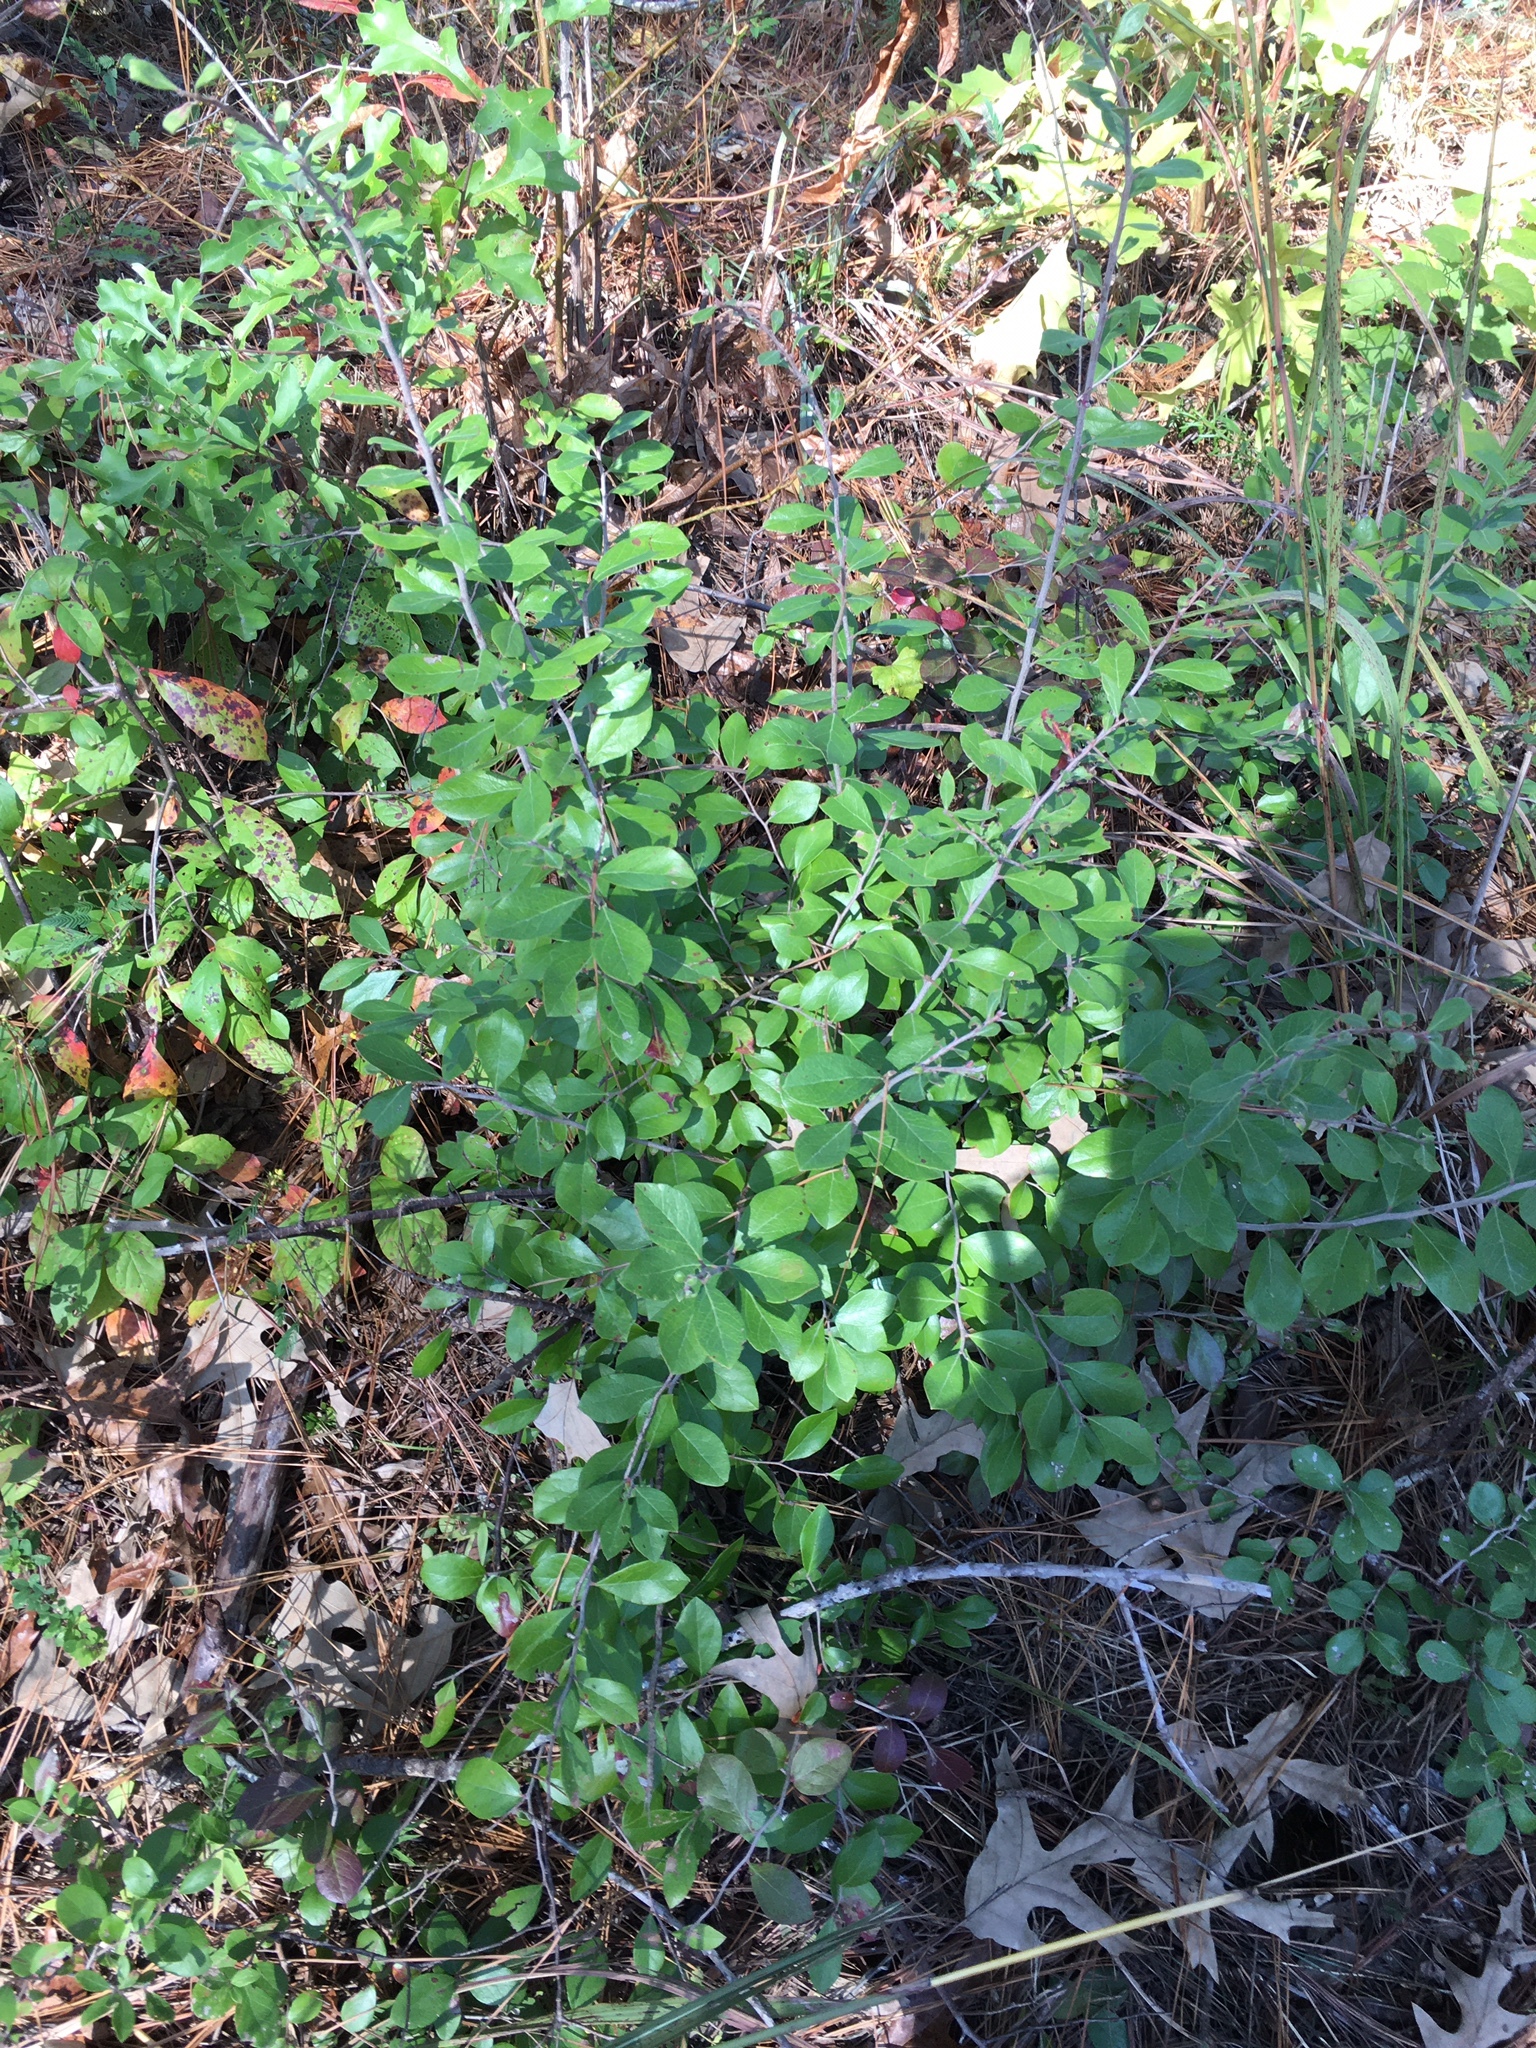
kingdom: Plantae
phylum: Tracheophyta
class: Magnoliopsida
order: Ericales
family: Ericaceae
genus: Vaccinium
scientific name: Vaccinium arboreum
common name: Farkleberry
